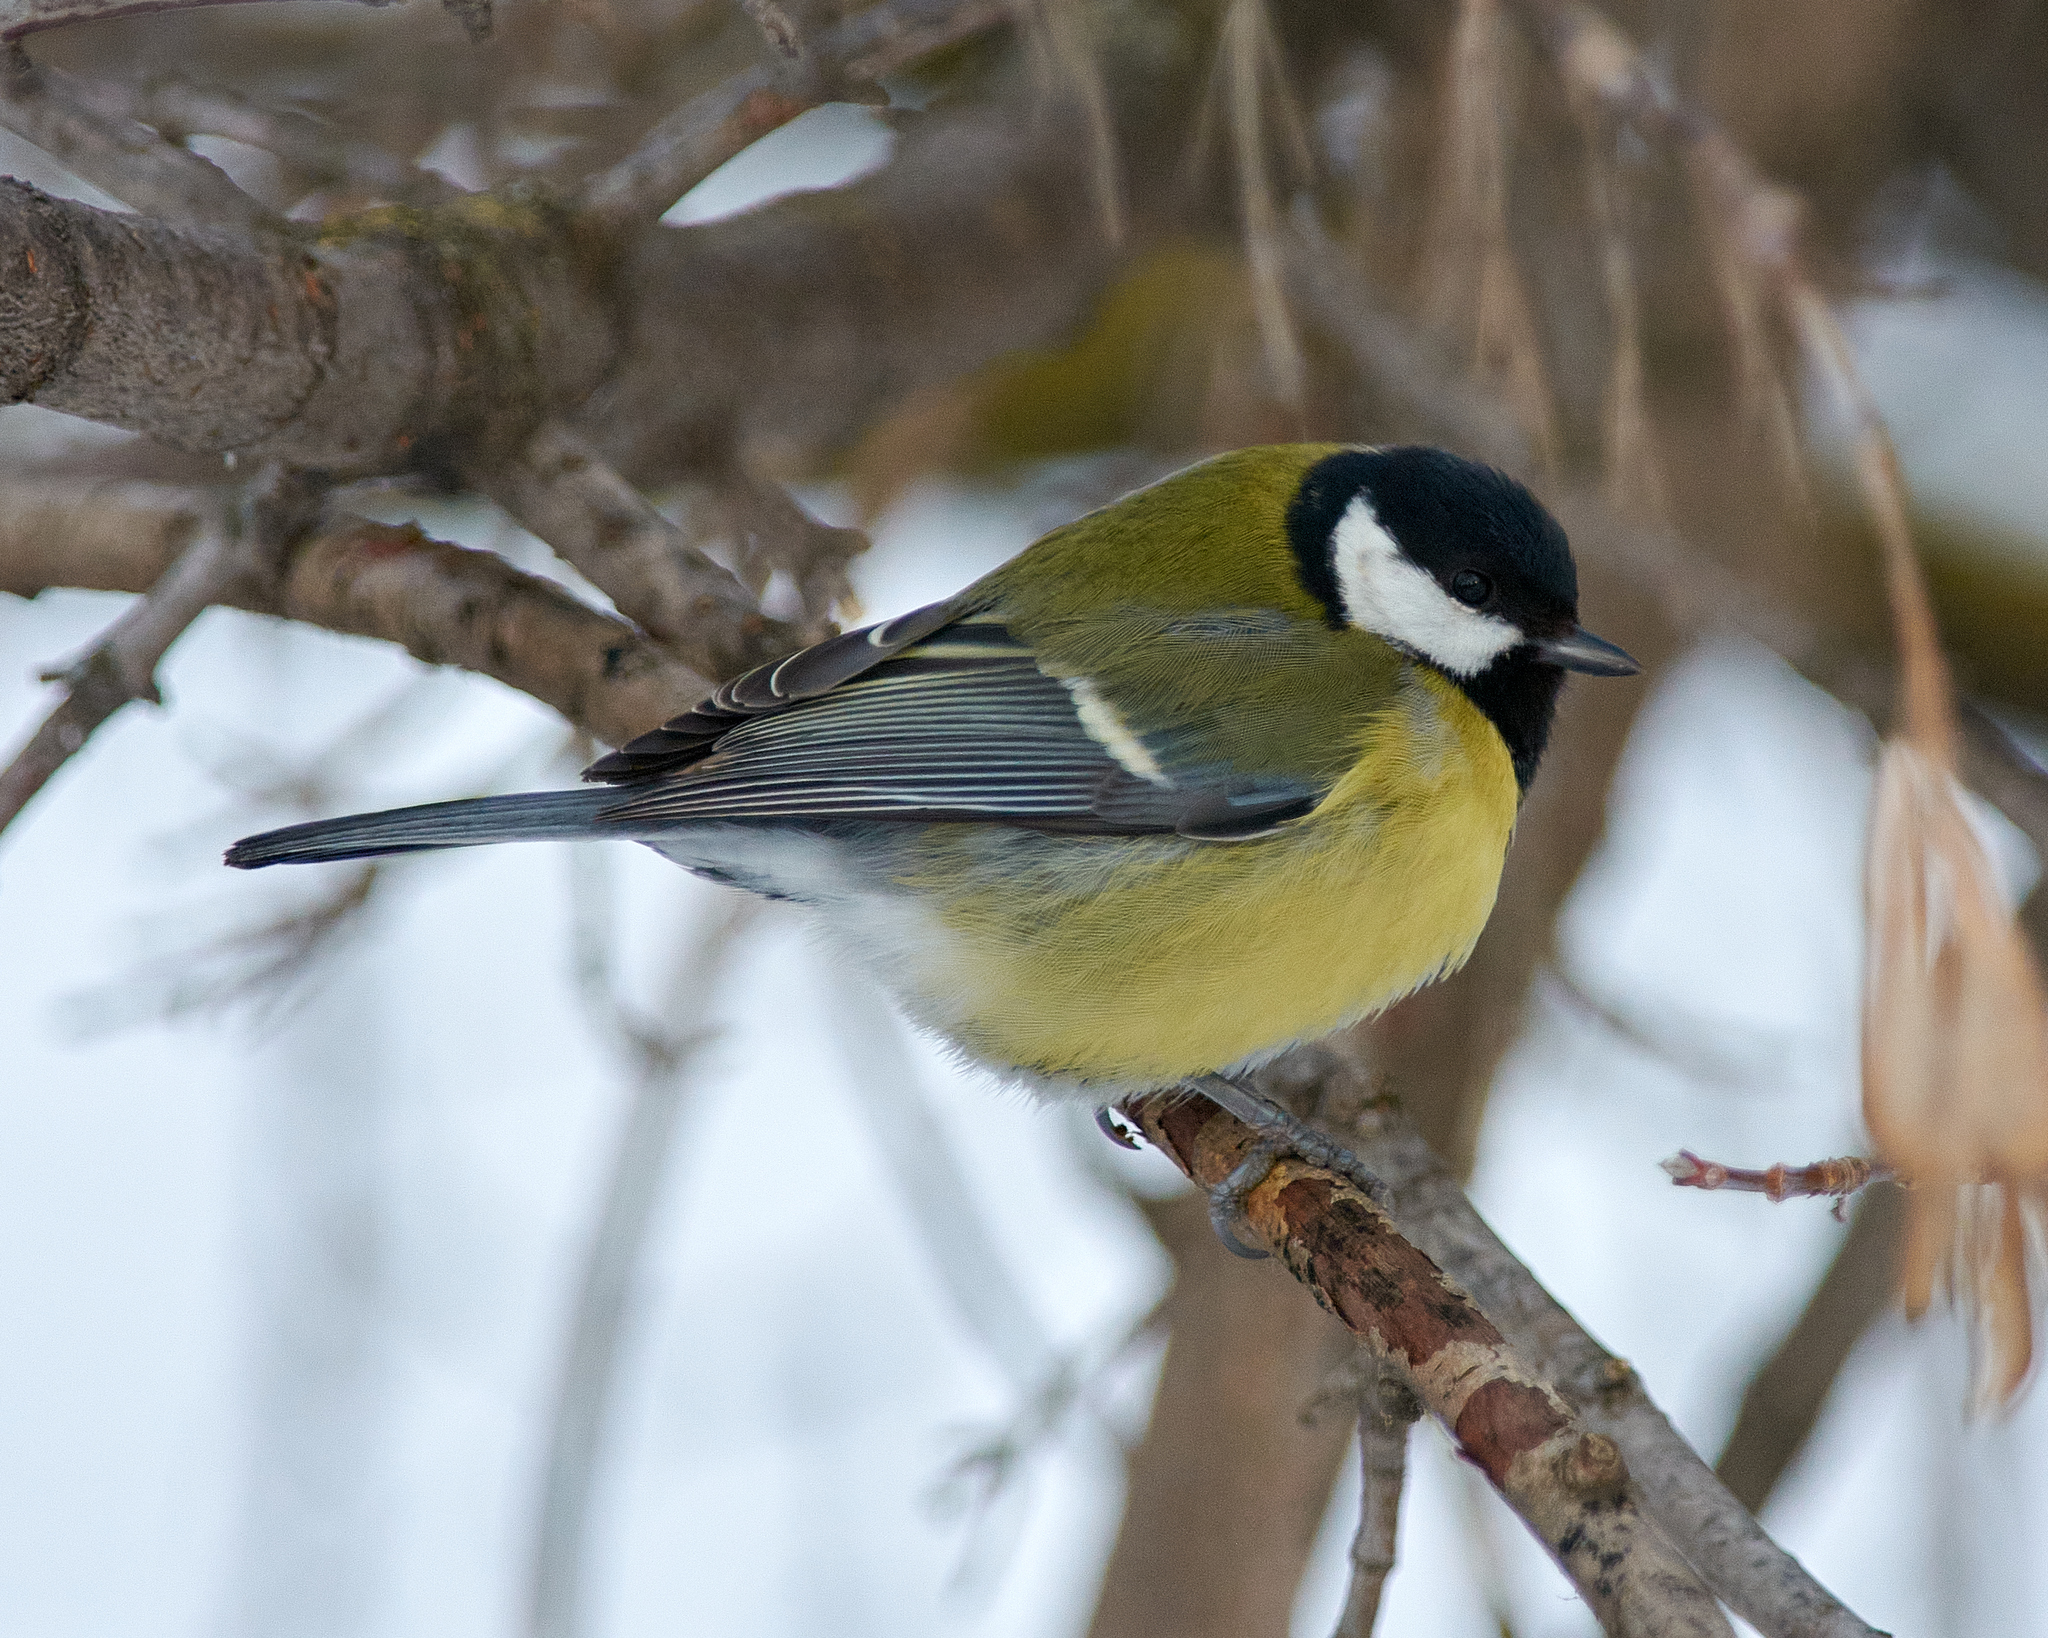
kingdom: Animalia
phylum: Chordata
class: Aves
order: Passeriformes
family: Paridae
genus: Parus
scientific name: Parus major
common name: Great tit
